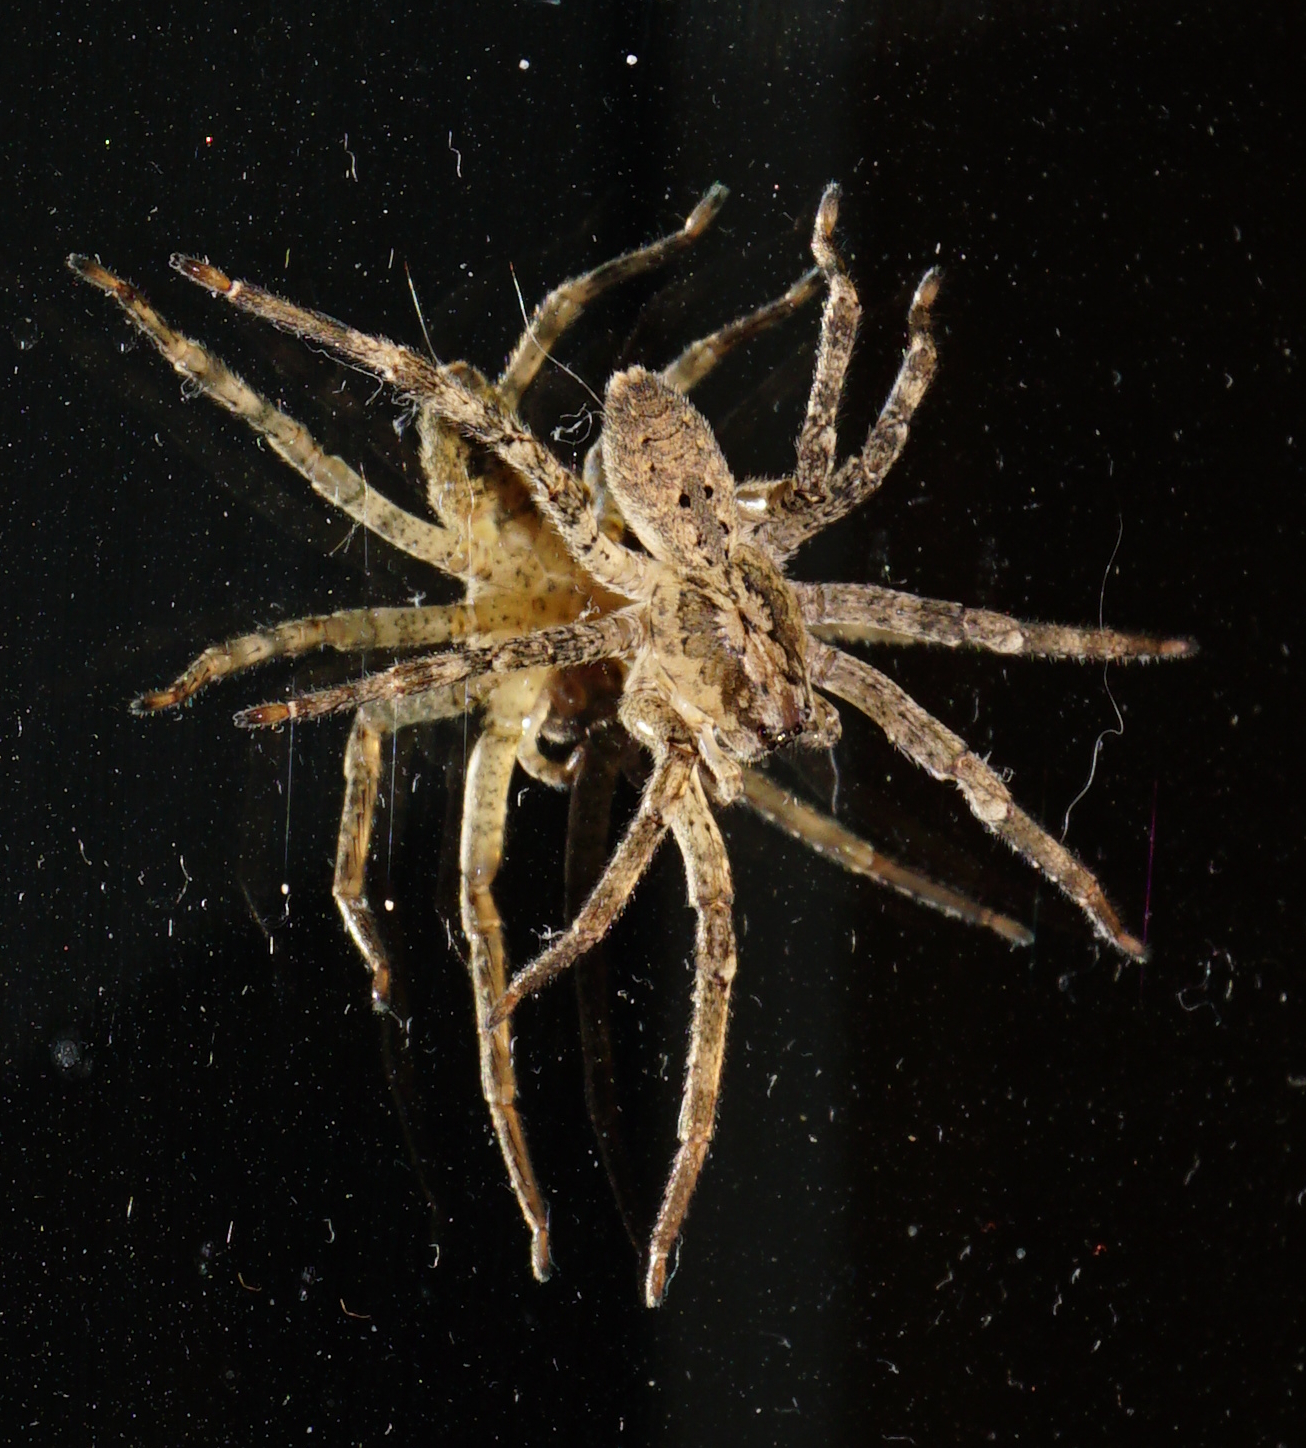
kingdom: Animalia
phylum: Arthropoda
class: Arachnida
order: Araneae
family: Zoropsidae
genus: Zoropsis
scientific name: Zoropsis spinimana
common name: Zoropsid spider
